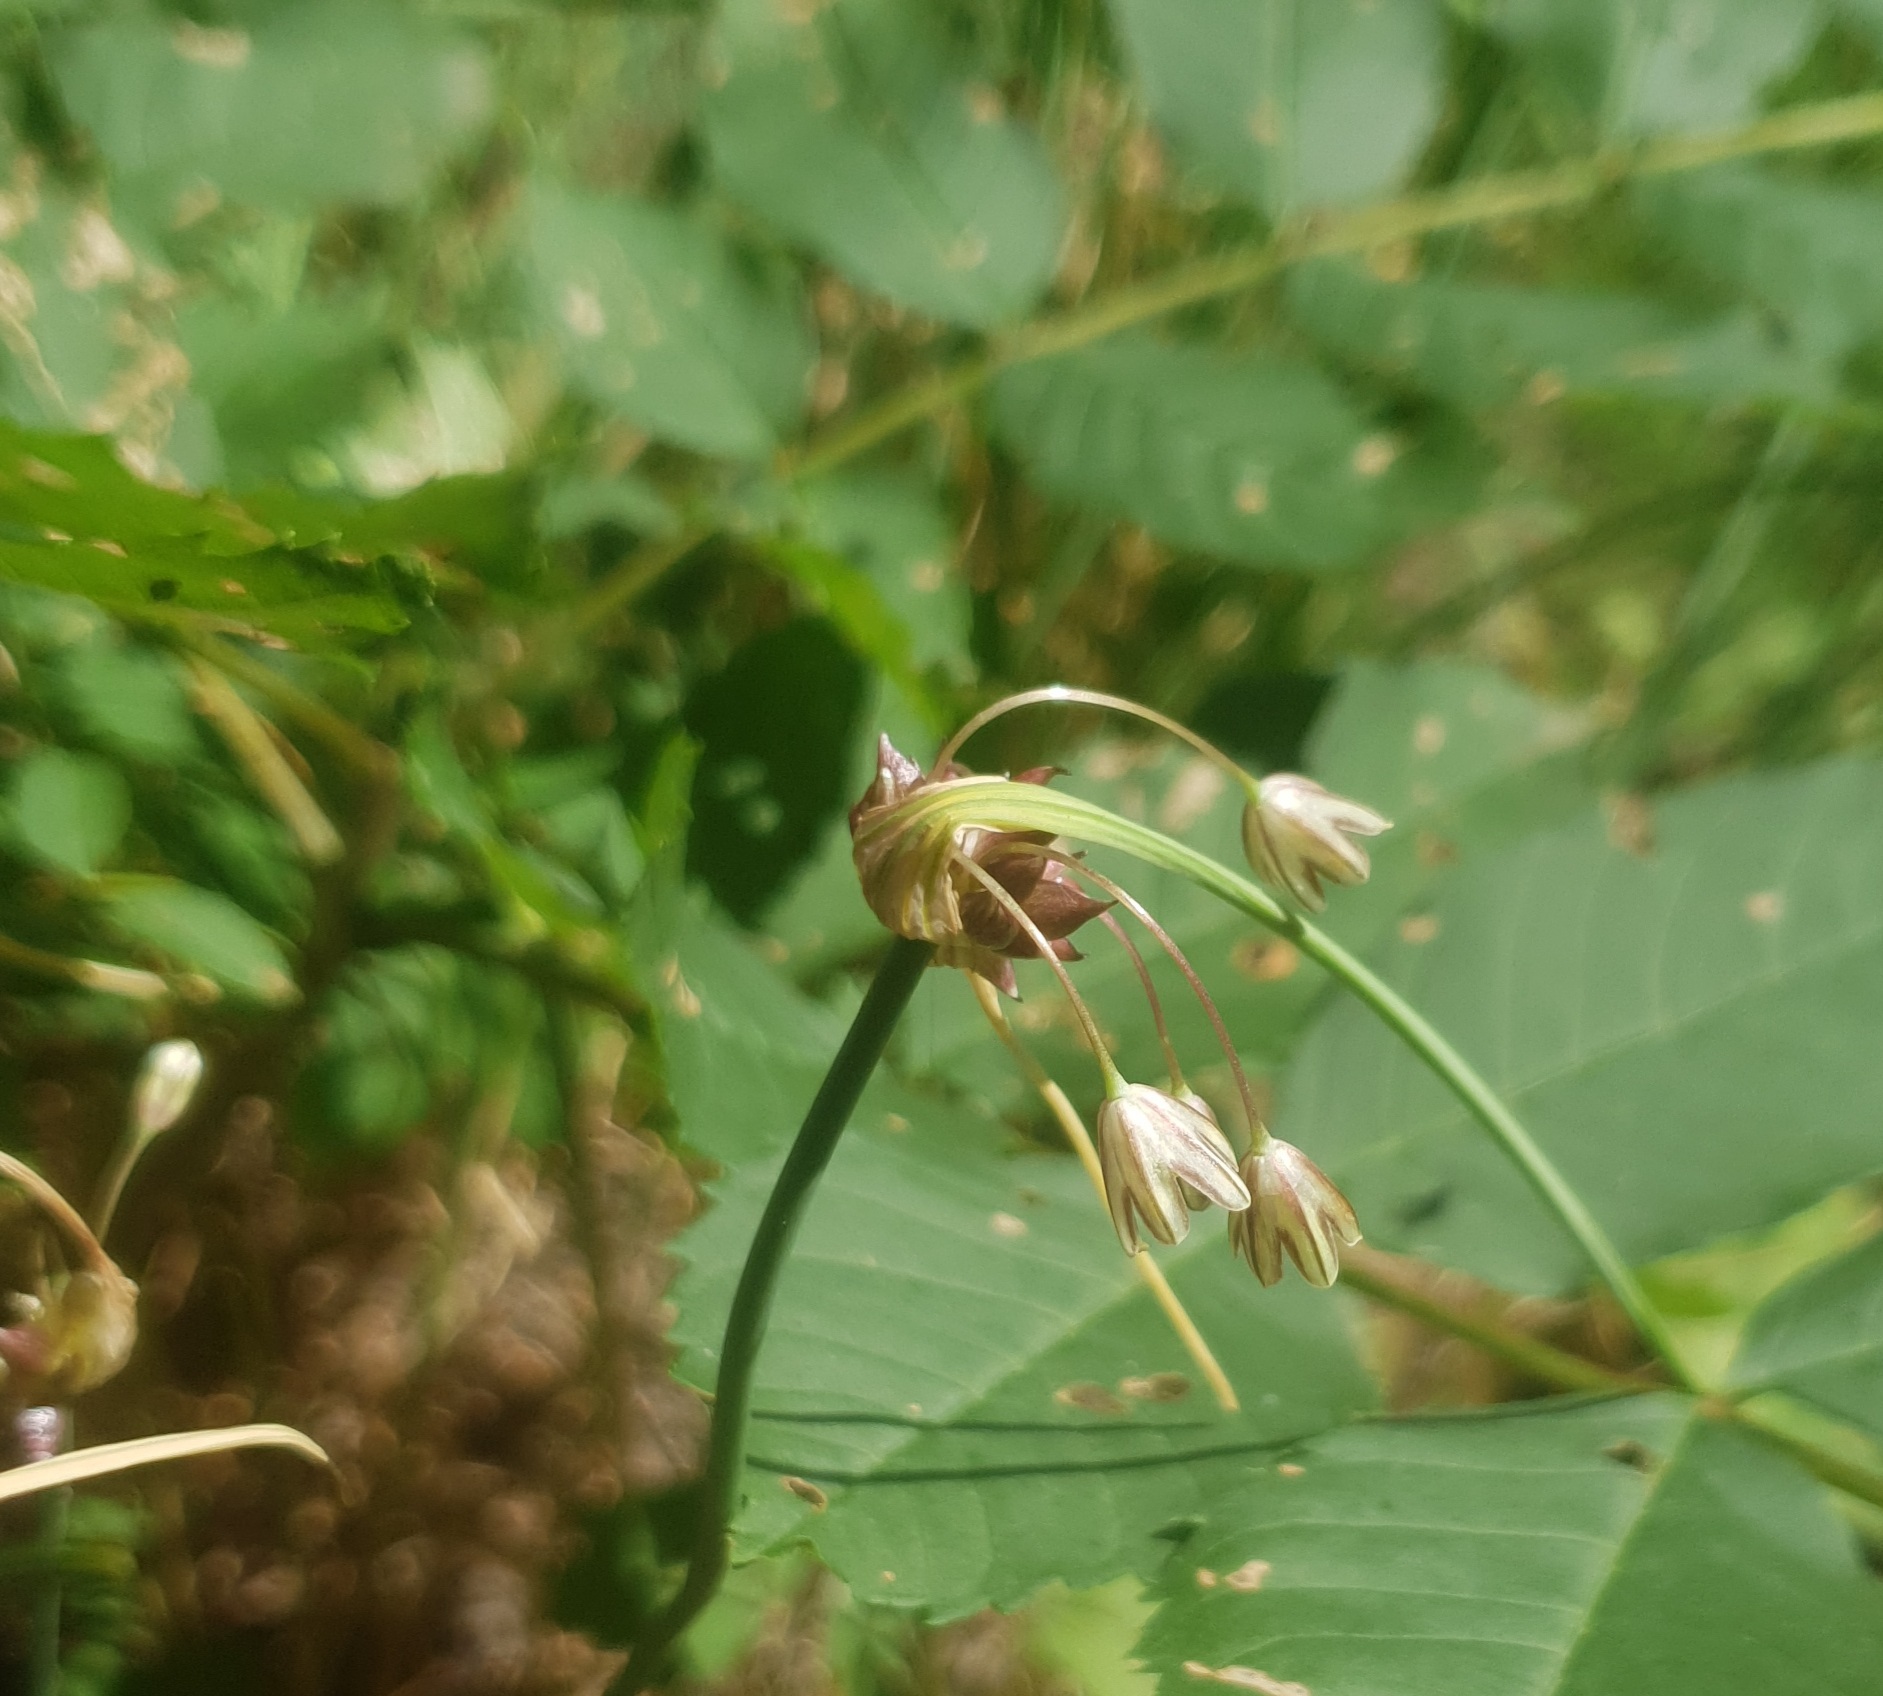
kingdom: Plantae
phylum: Tracheophyta
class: Liliopsida
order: Asparagales
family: Amaryllidaceae
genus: Allium
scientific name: Allium oleraceum
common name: Field garlic
